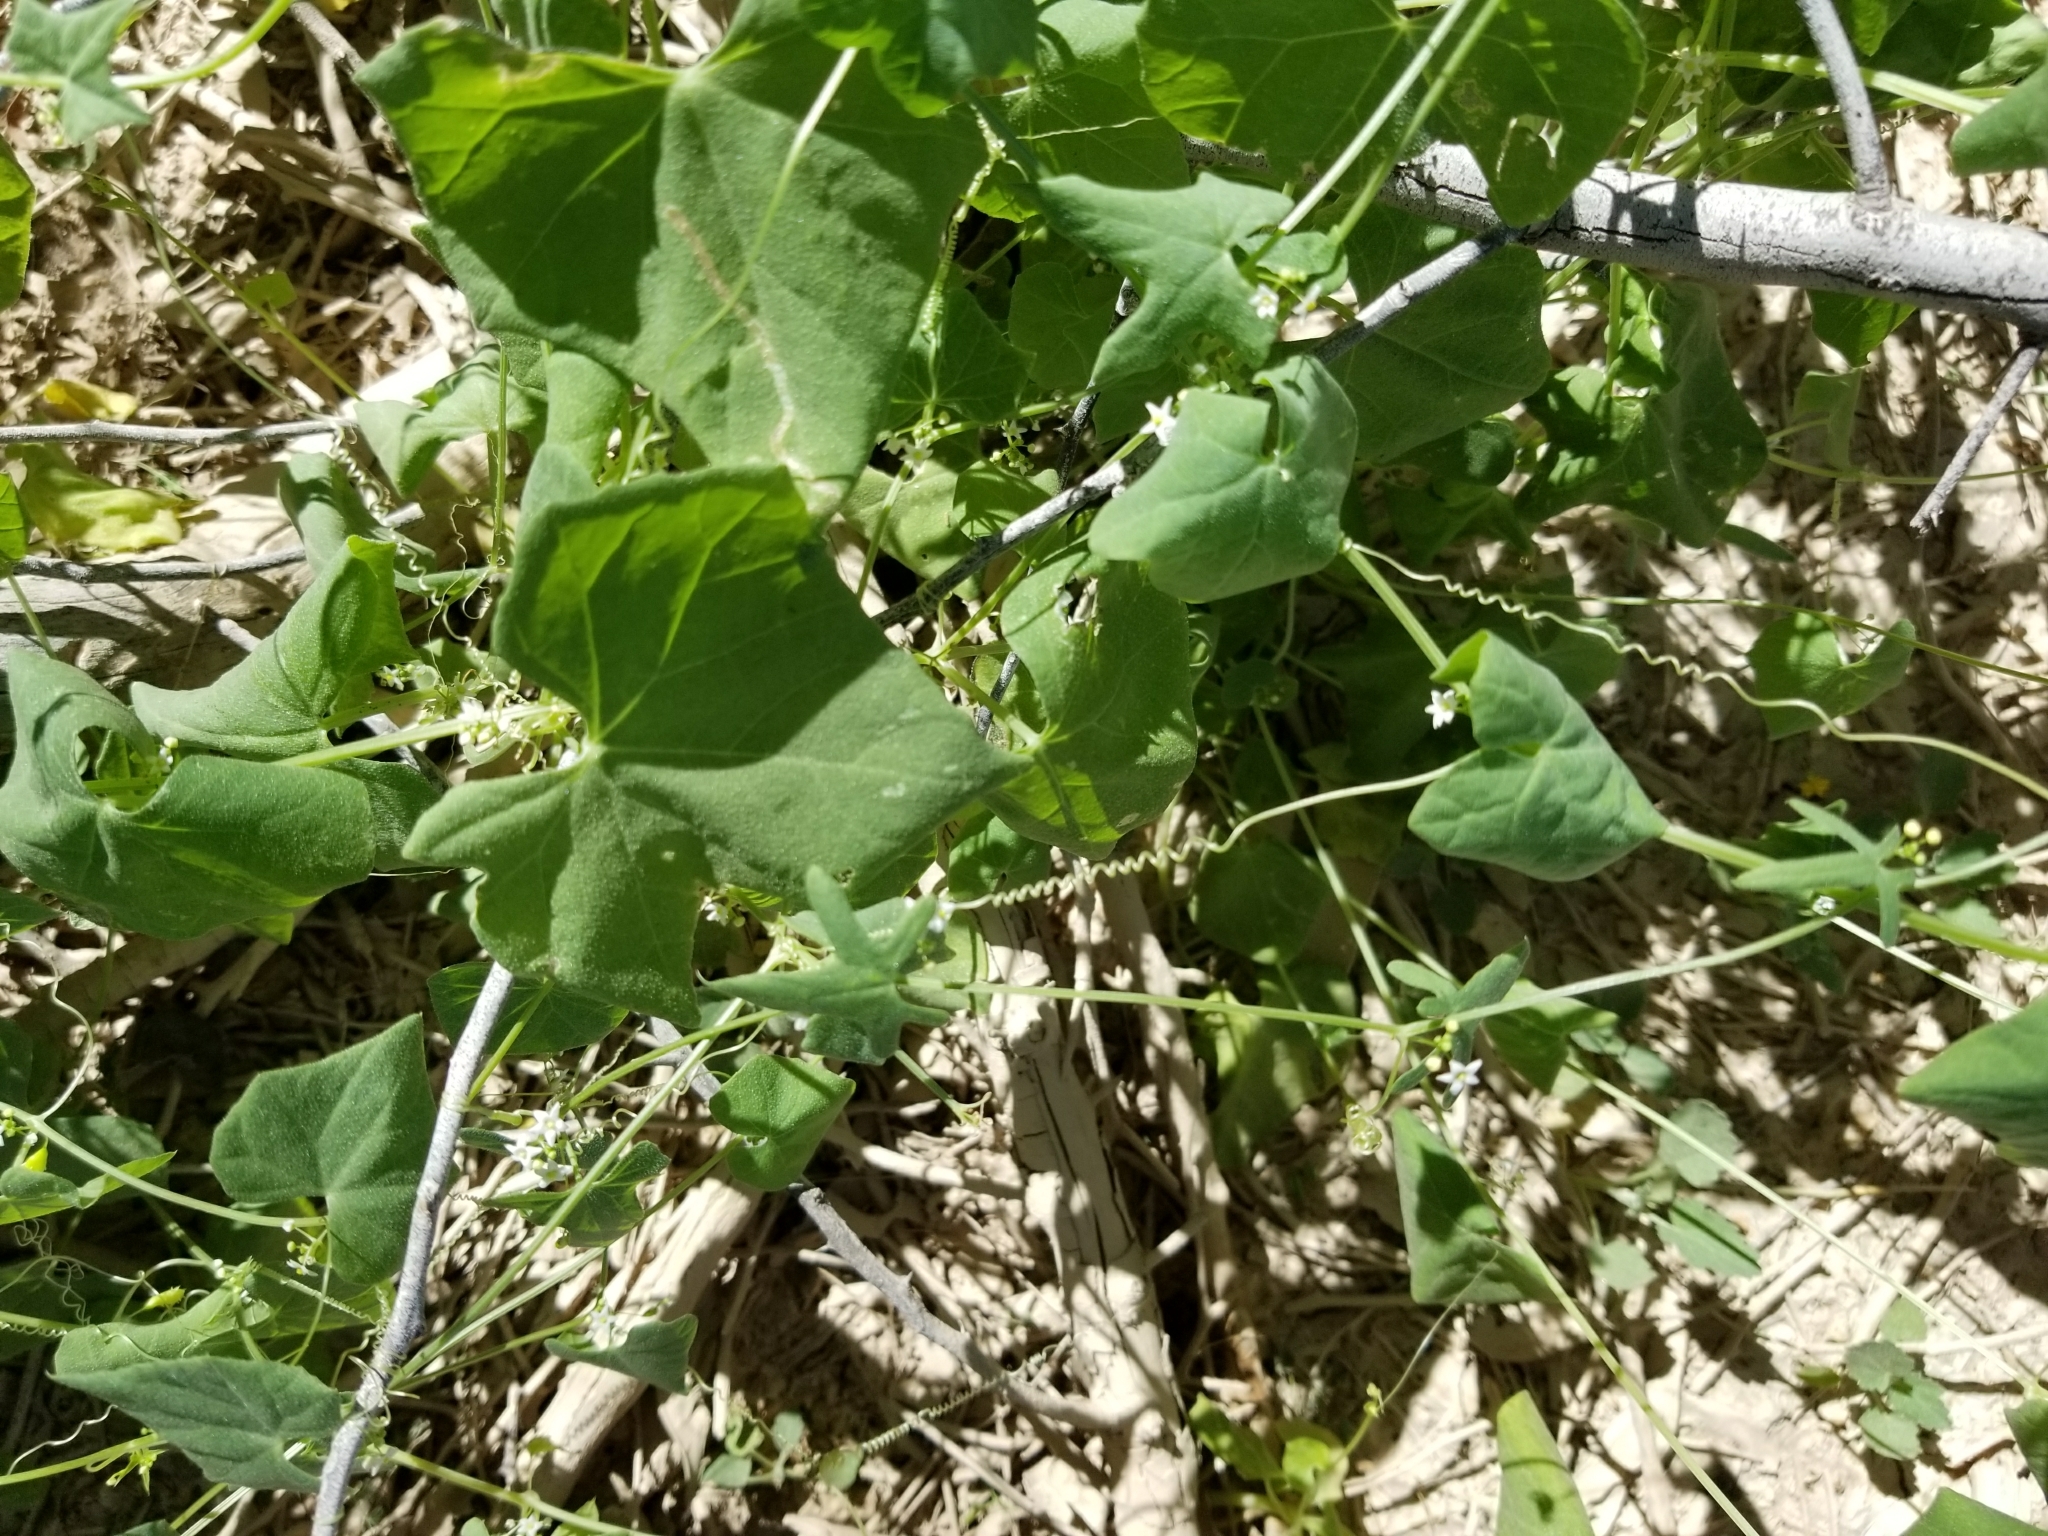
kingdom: Plantae
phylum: Tracheophyta
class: Magnoliopsida
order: Cucurbitales
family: Cucurbitaceae
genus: Echinopepon
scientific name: Echinopepon bigelovii
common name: Desert starvine
